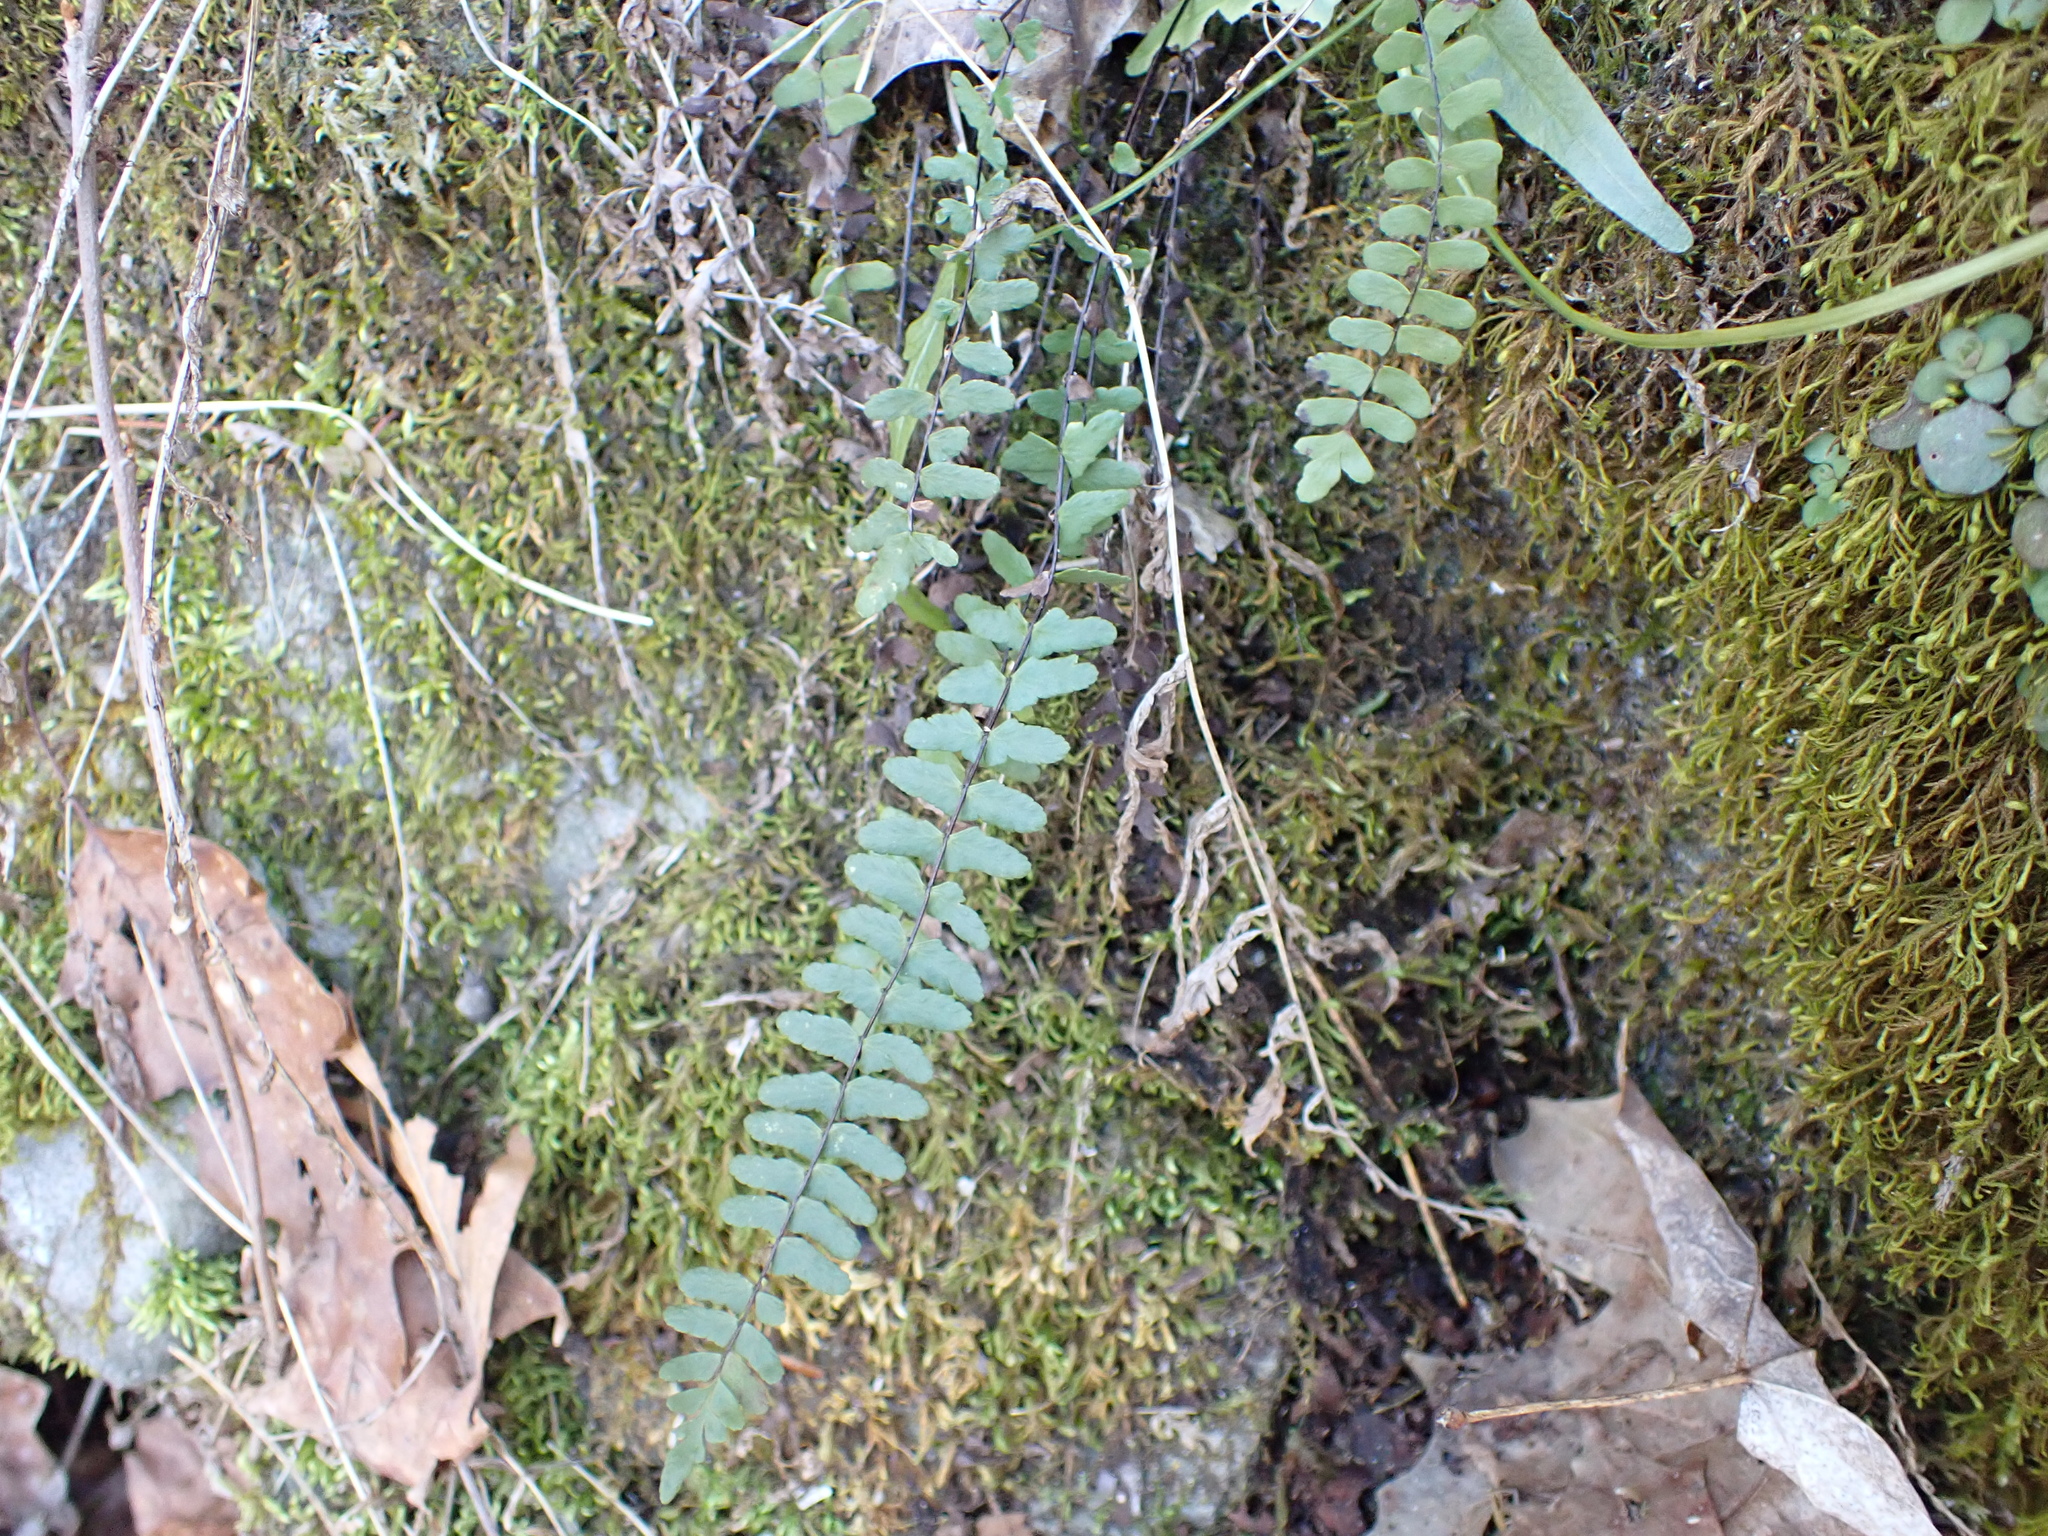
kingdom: Plantae
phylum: Tracheophyta
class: Polypodiopsida
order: Polypodiales
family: Aspleniaceae
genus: Asplenium
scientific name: Asplenium resiliens
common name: Blackstem spleenwort
